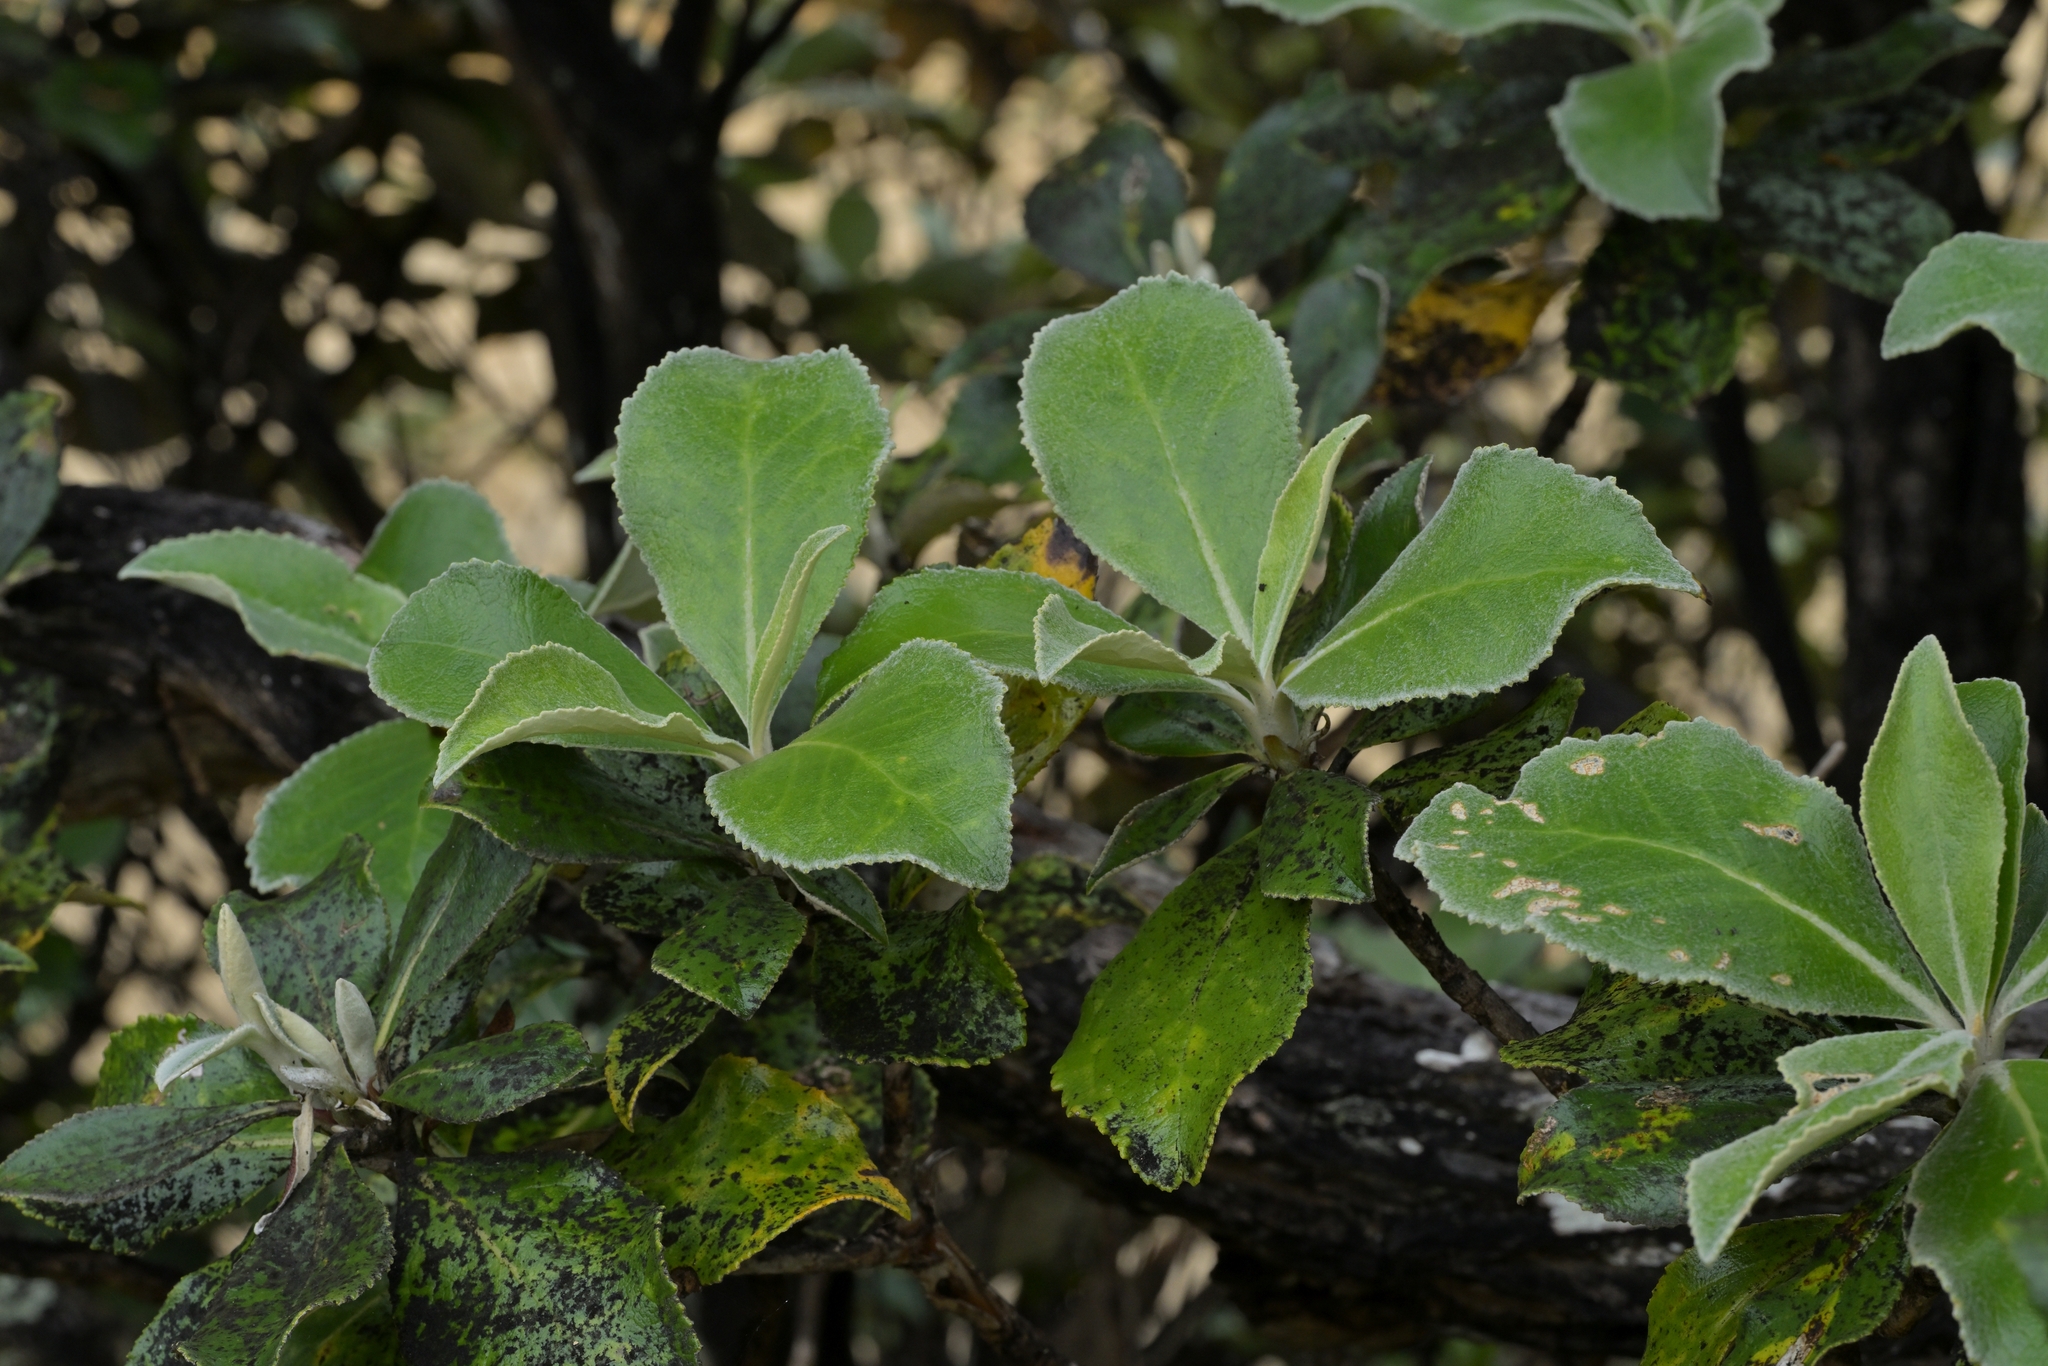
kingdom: Plantae
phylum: Tracheophyta
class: Magnoliopsida
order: Asterales
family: Asteraceae
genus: Macrolearia
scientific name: Macrolearia colensoi
